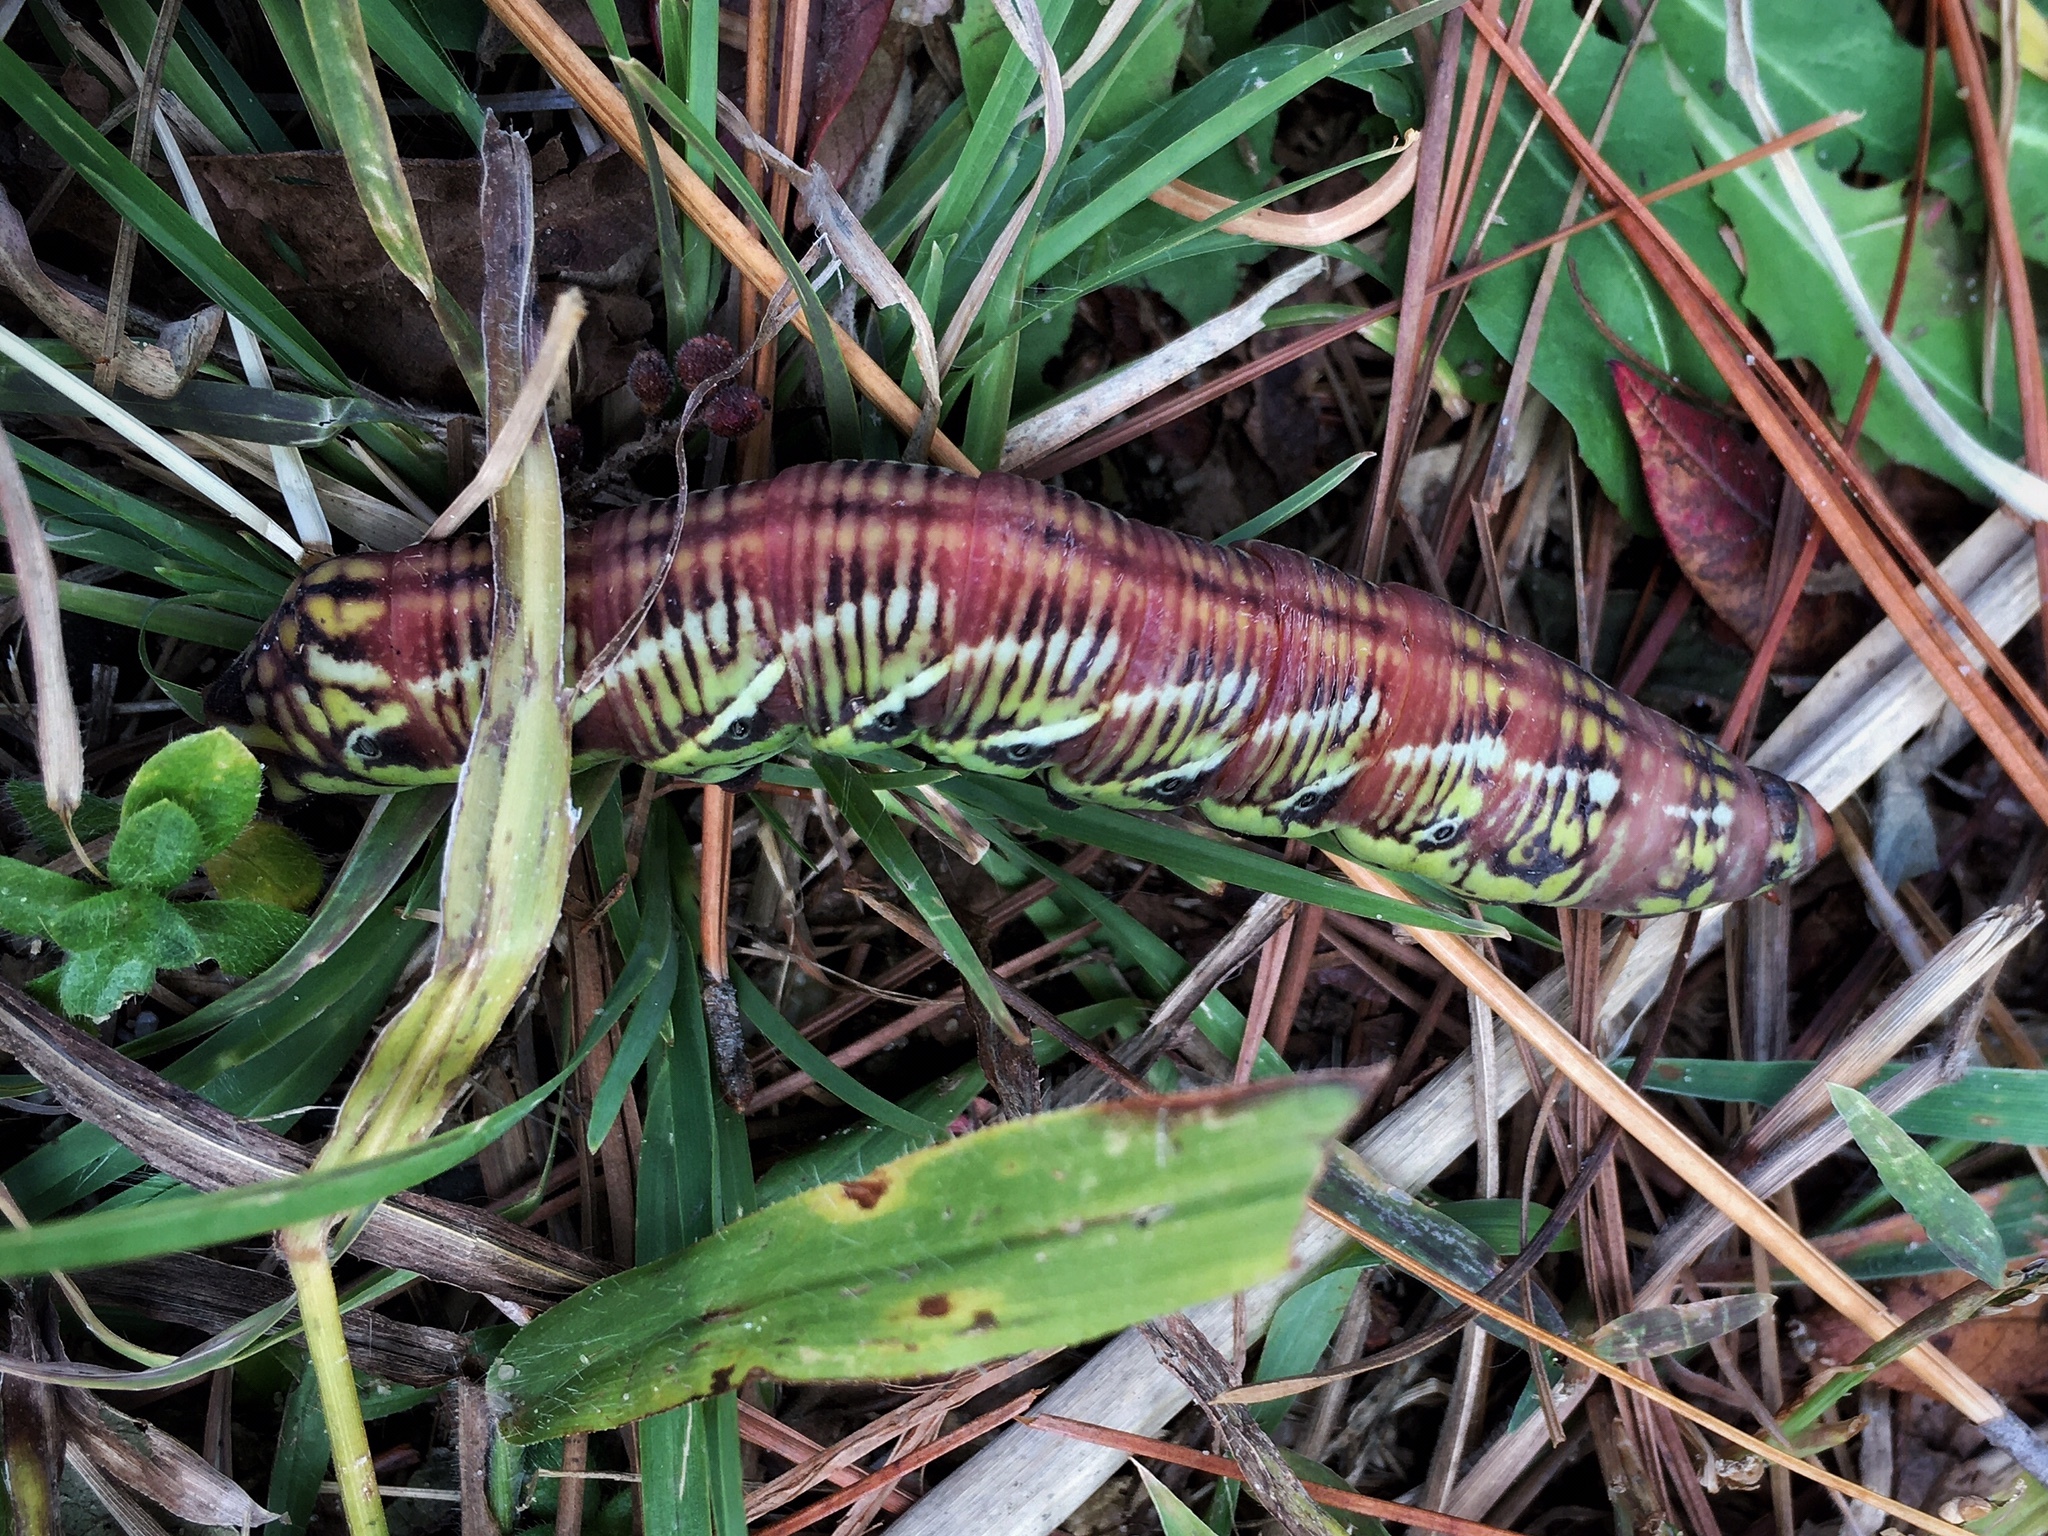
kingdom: Animalia
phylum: Arthropoda
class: Insecta
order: Lepidoptera
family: Sphingidae
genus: Eumorpha
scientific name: Eumorpha fasciatus
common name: Banded sphinx
